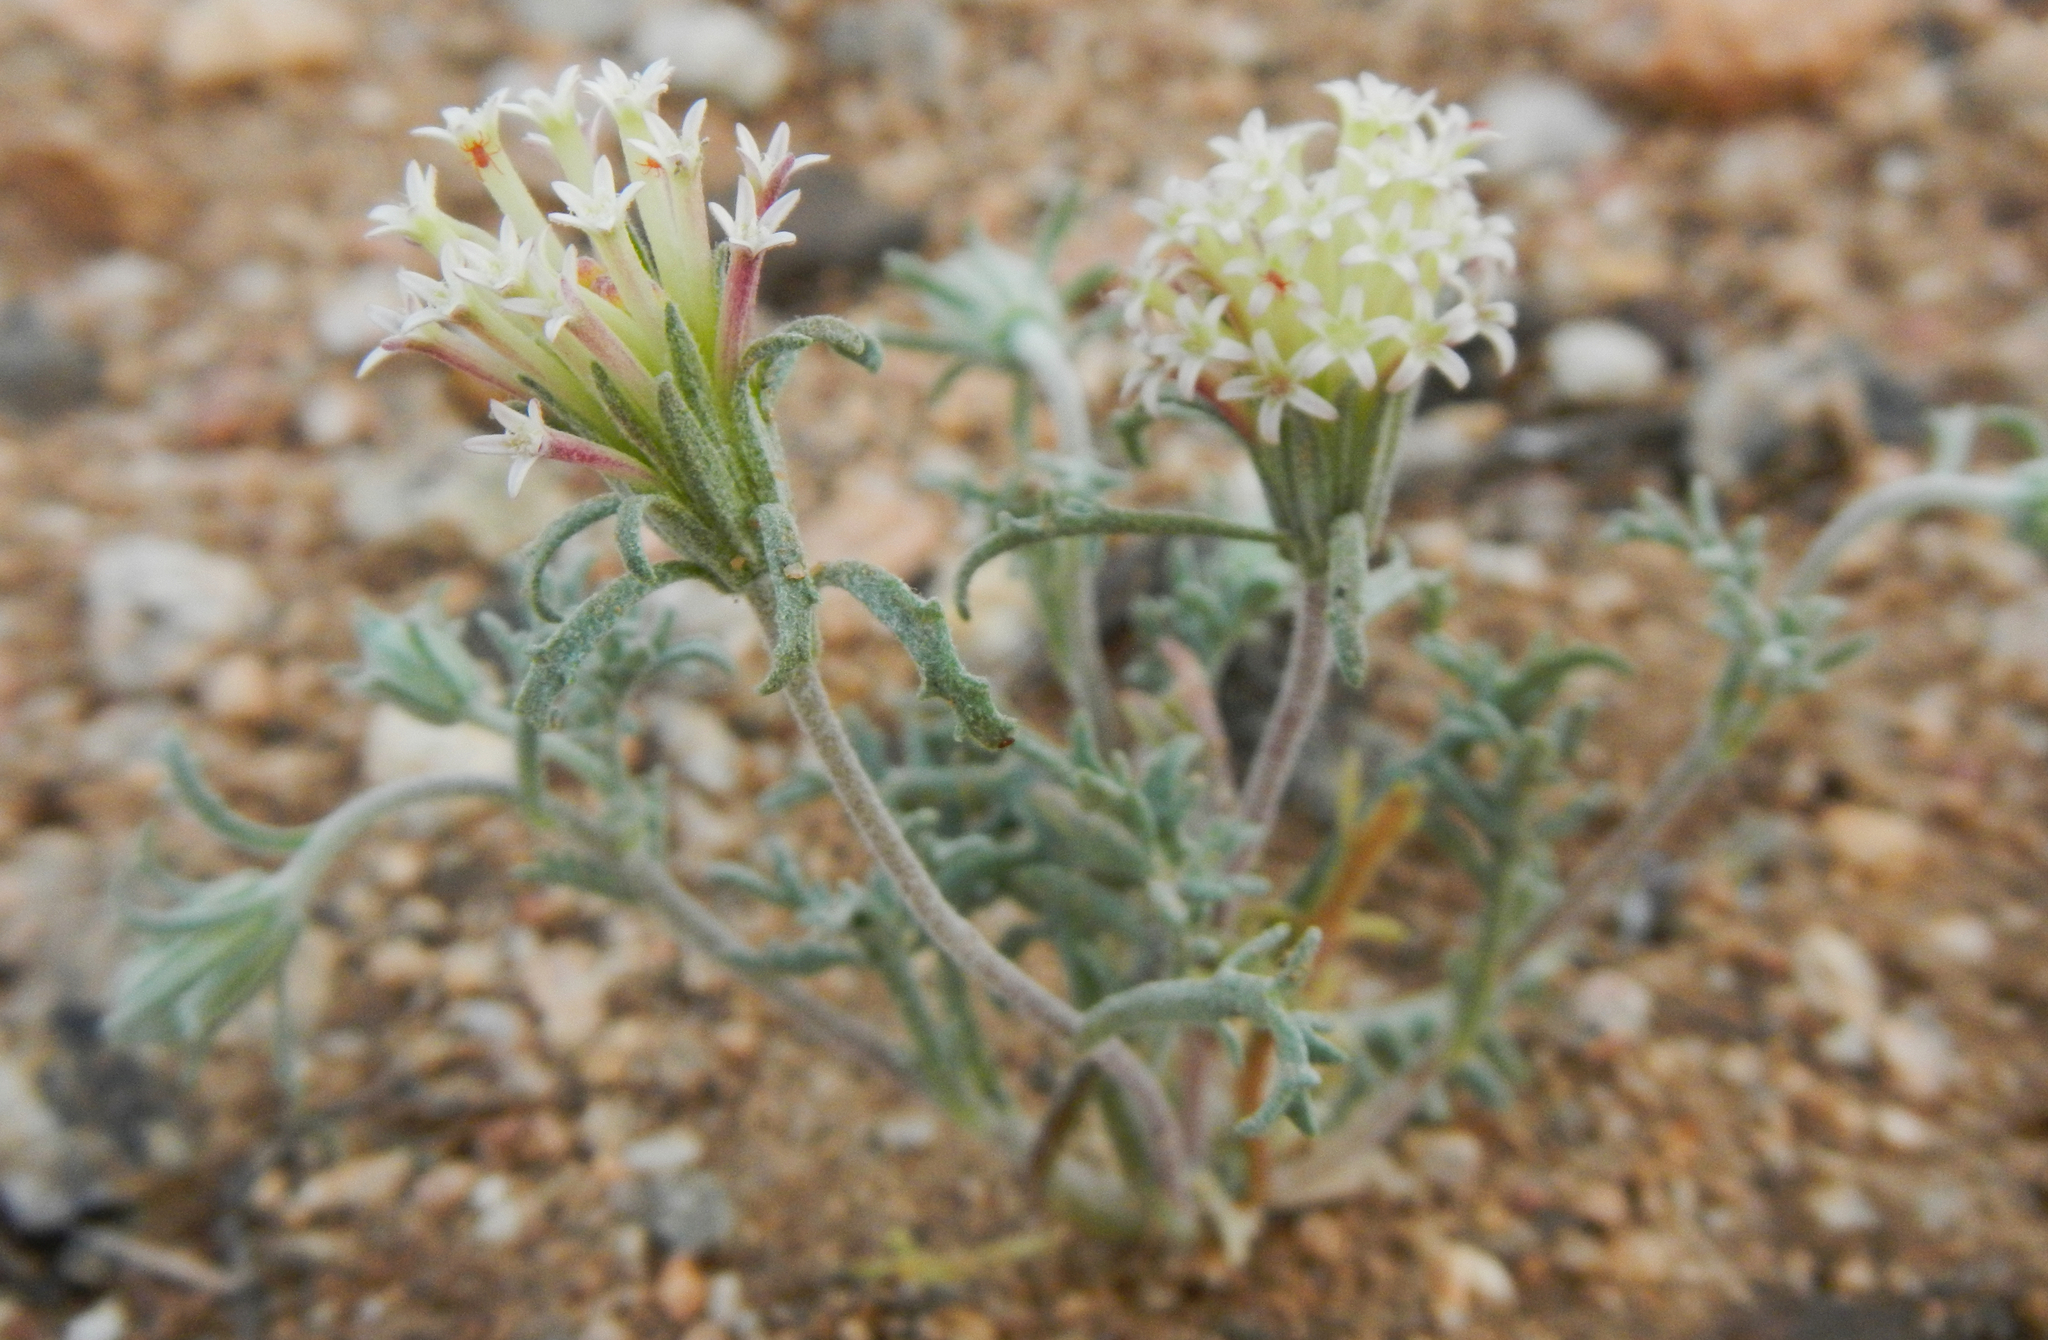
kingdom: Plantae
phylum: Tracheophyta
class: Magnoliopsida
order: Asterales
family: Asteraceae
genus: Chaenactis
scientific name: Chaenactis macrantha
